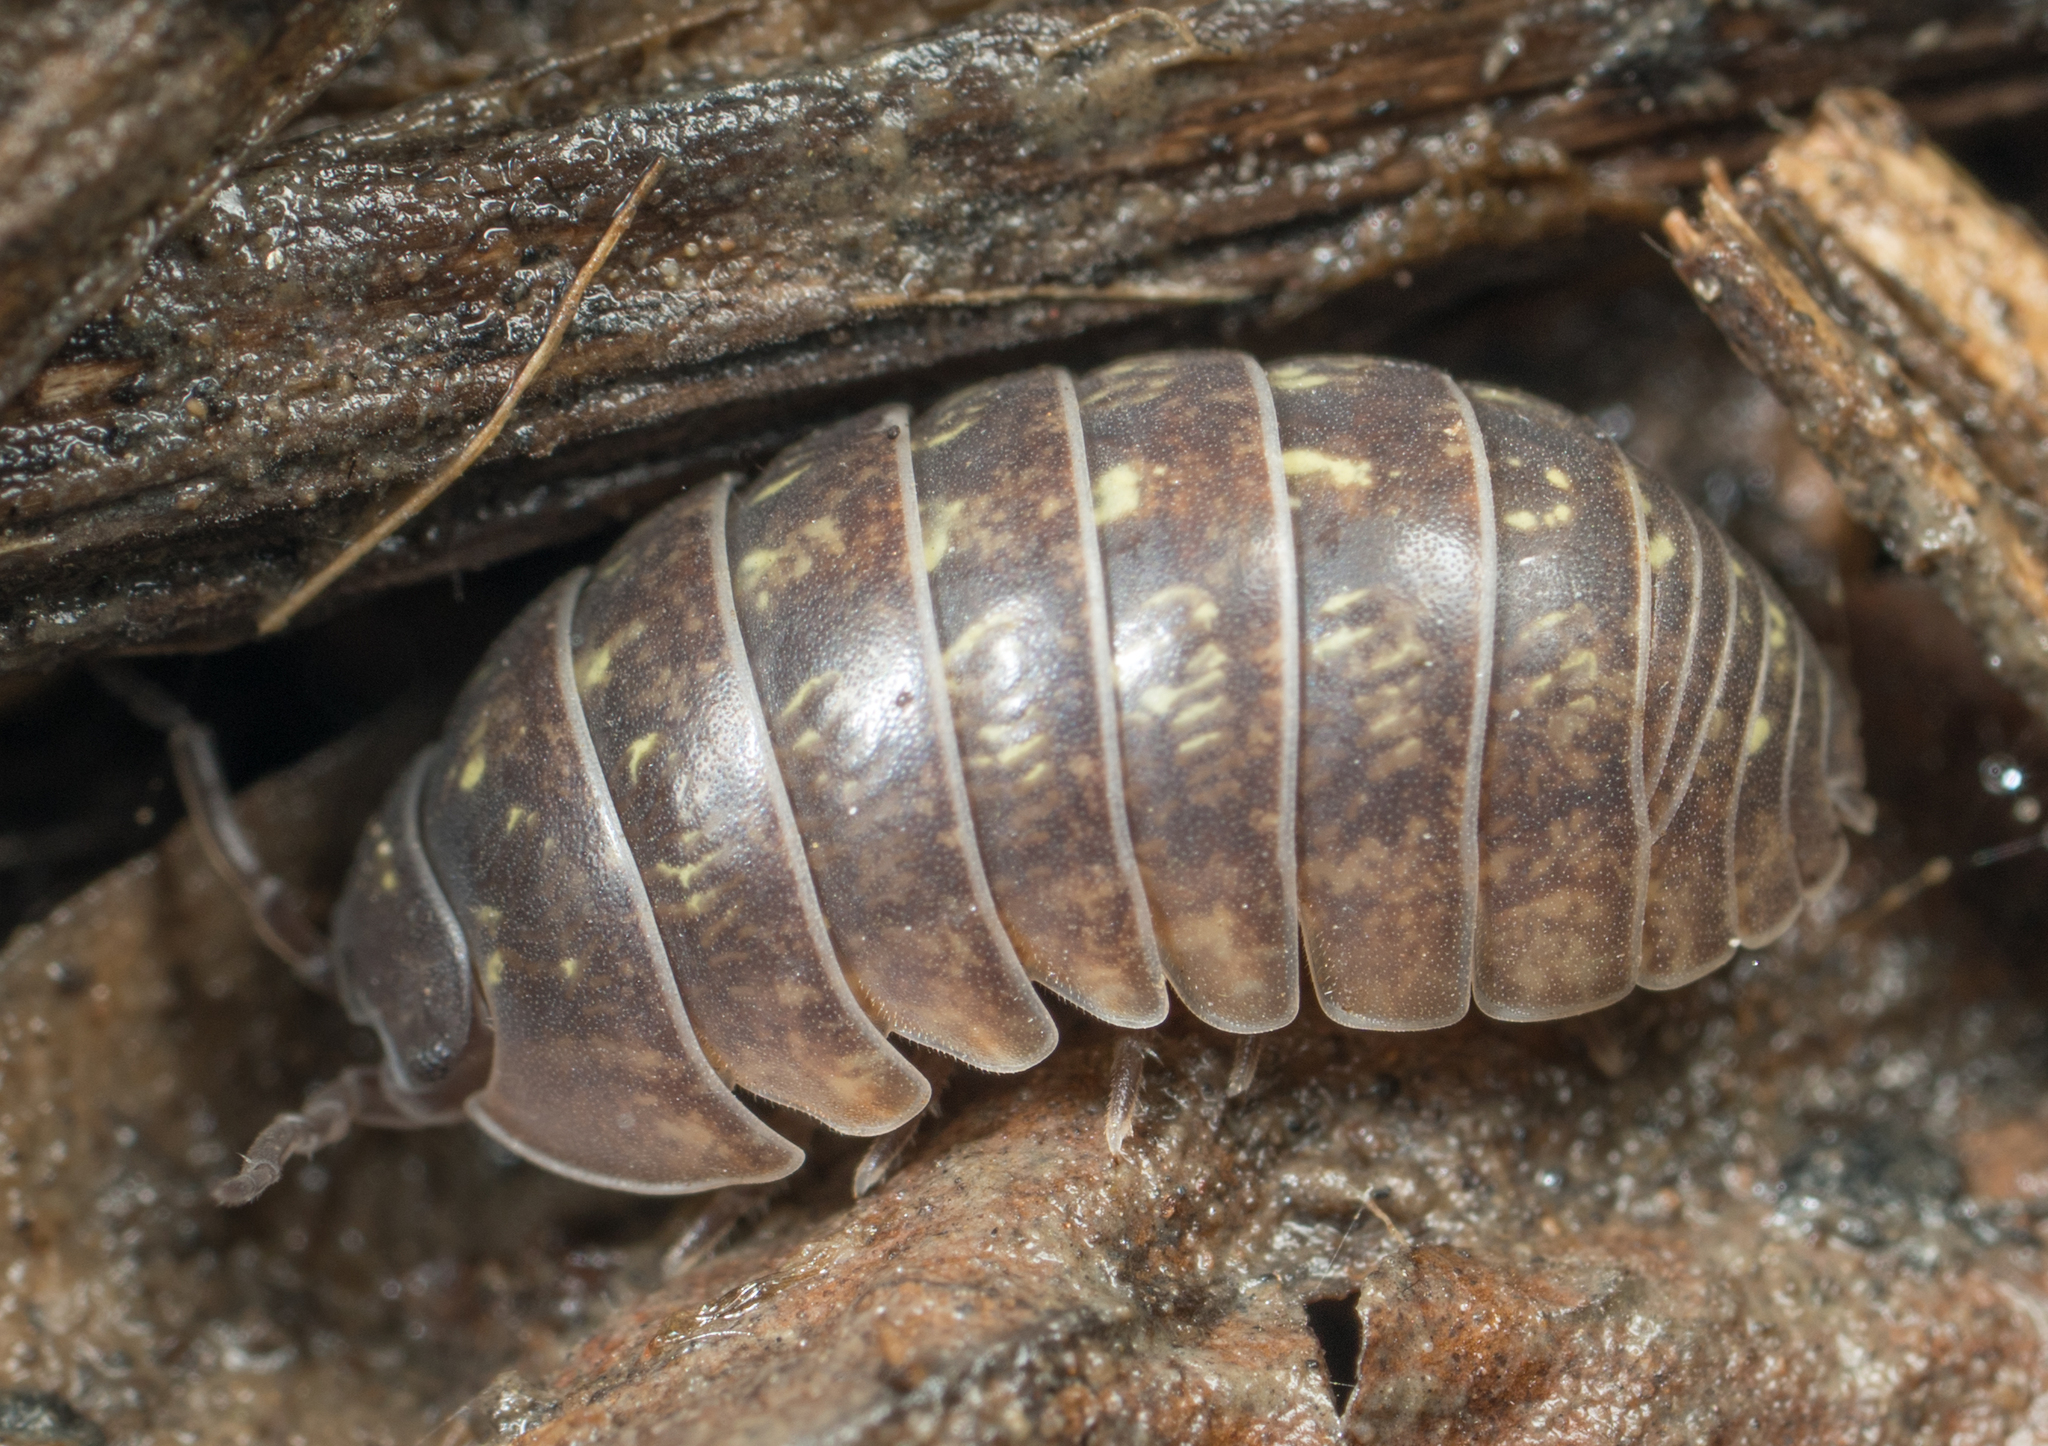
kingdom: Animalia
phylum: Arthropoda
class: Malacostraca
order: Isopoda
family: Armadillidiidae
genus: Armadillidium
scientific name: Armadillidium vulgare
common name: Common pill woodlouse
